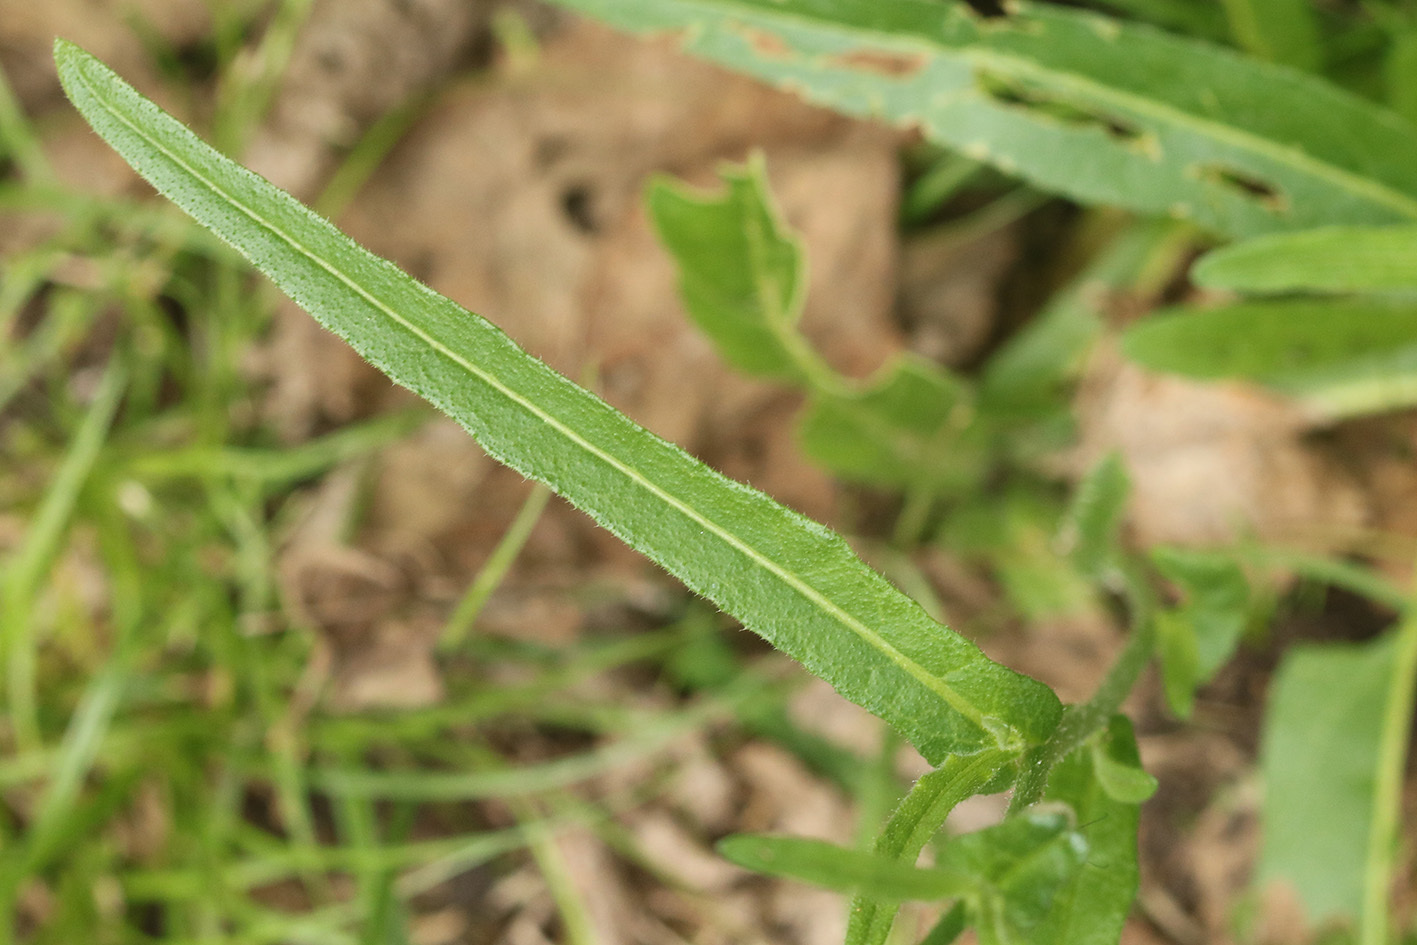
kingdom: Plantae
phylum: Tracheophyta
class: Magnoliopsida
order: Solanales
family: Solanaceae
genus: Nicotiana
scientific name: Nicotiana longiflora
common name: Long-flowered tobacco
